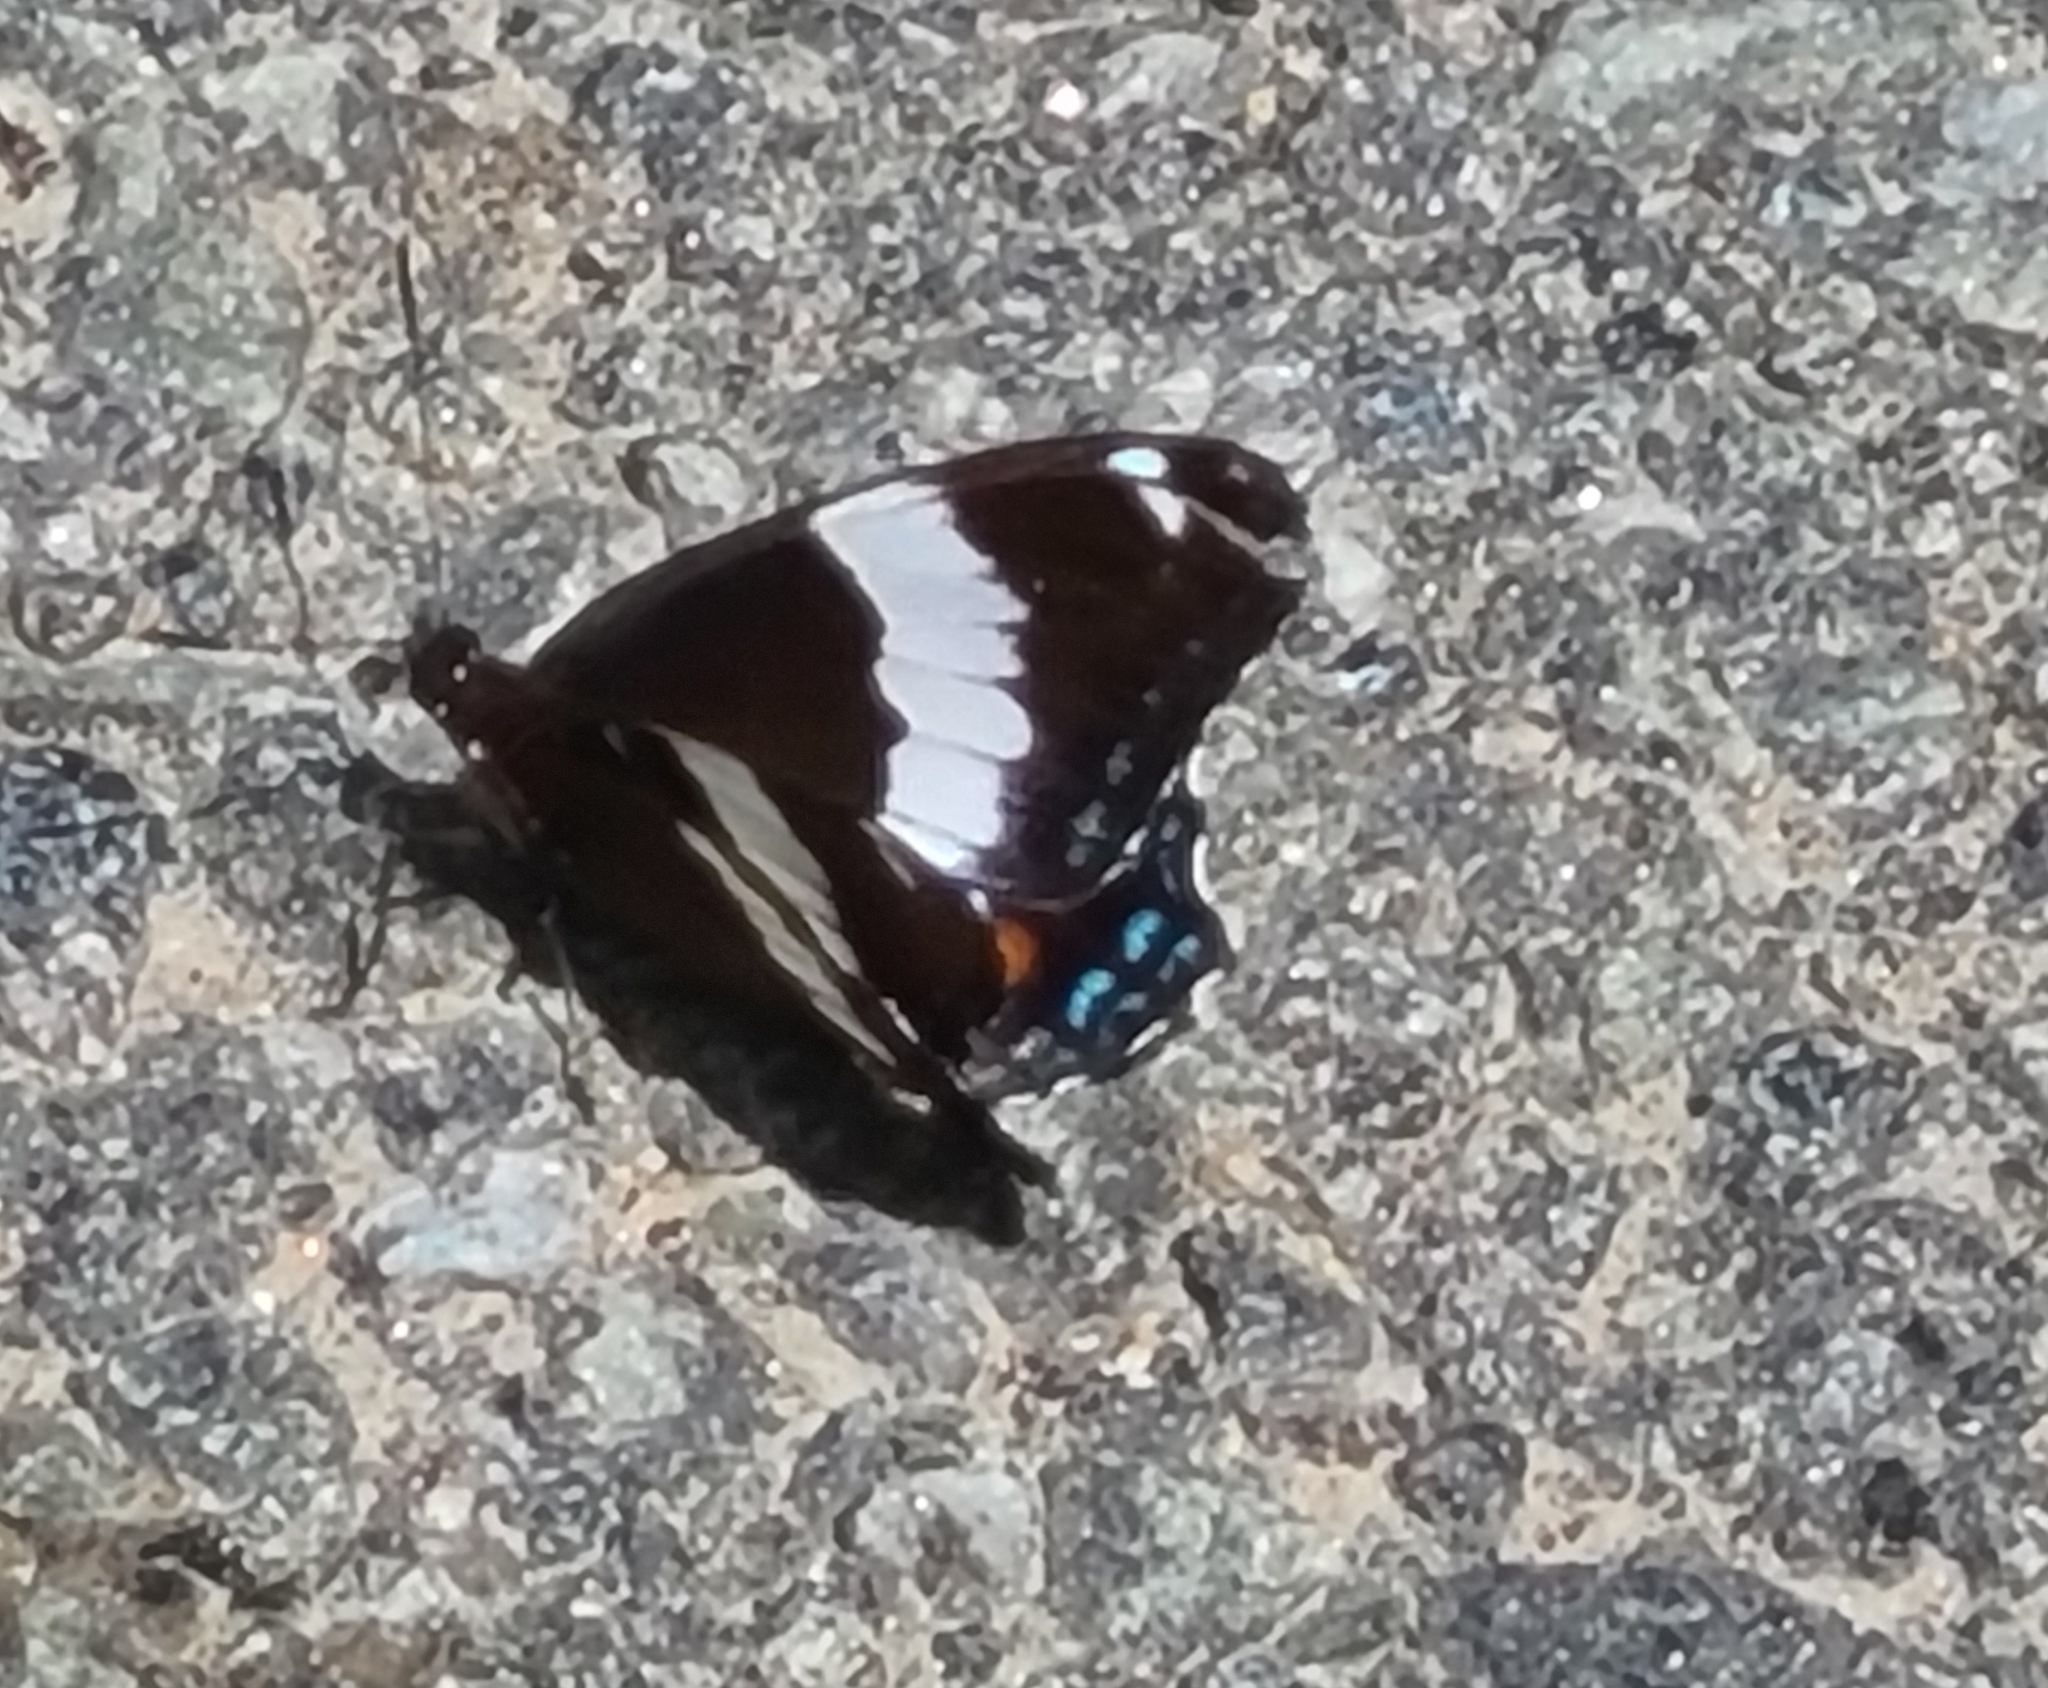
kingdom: Animalia
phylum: Arthropoda
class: Insecta
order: Lepidoptera
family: Nymphalidae
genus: Limenitis
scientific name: Limenitis arthemis
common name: Red-spotted admiral
